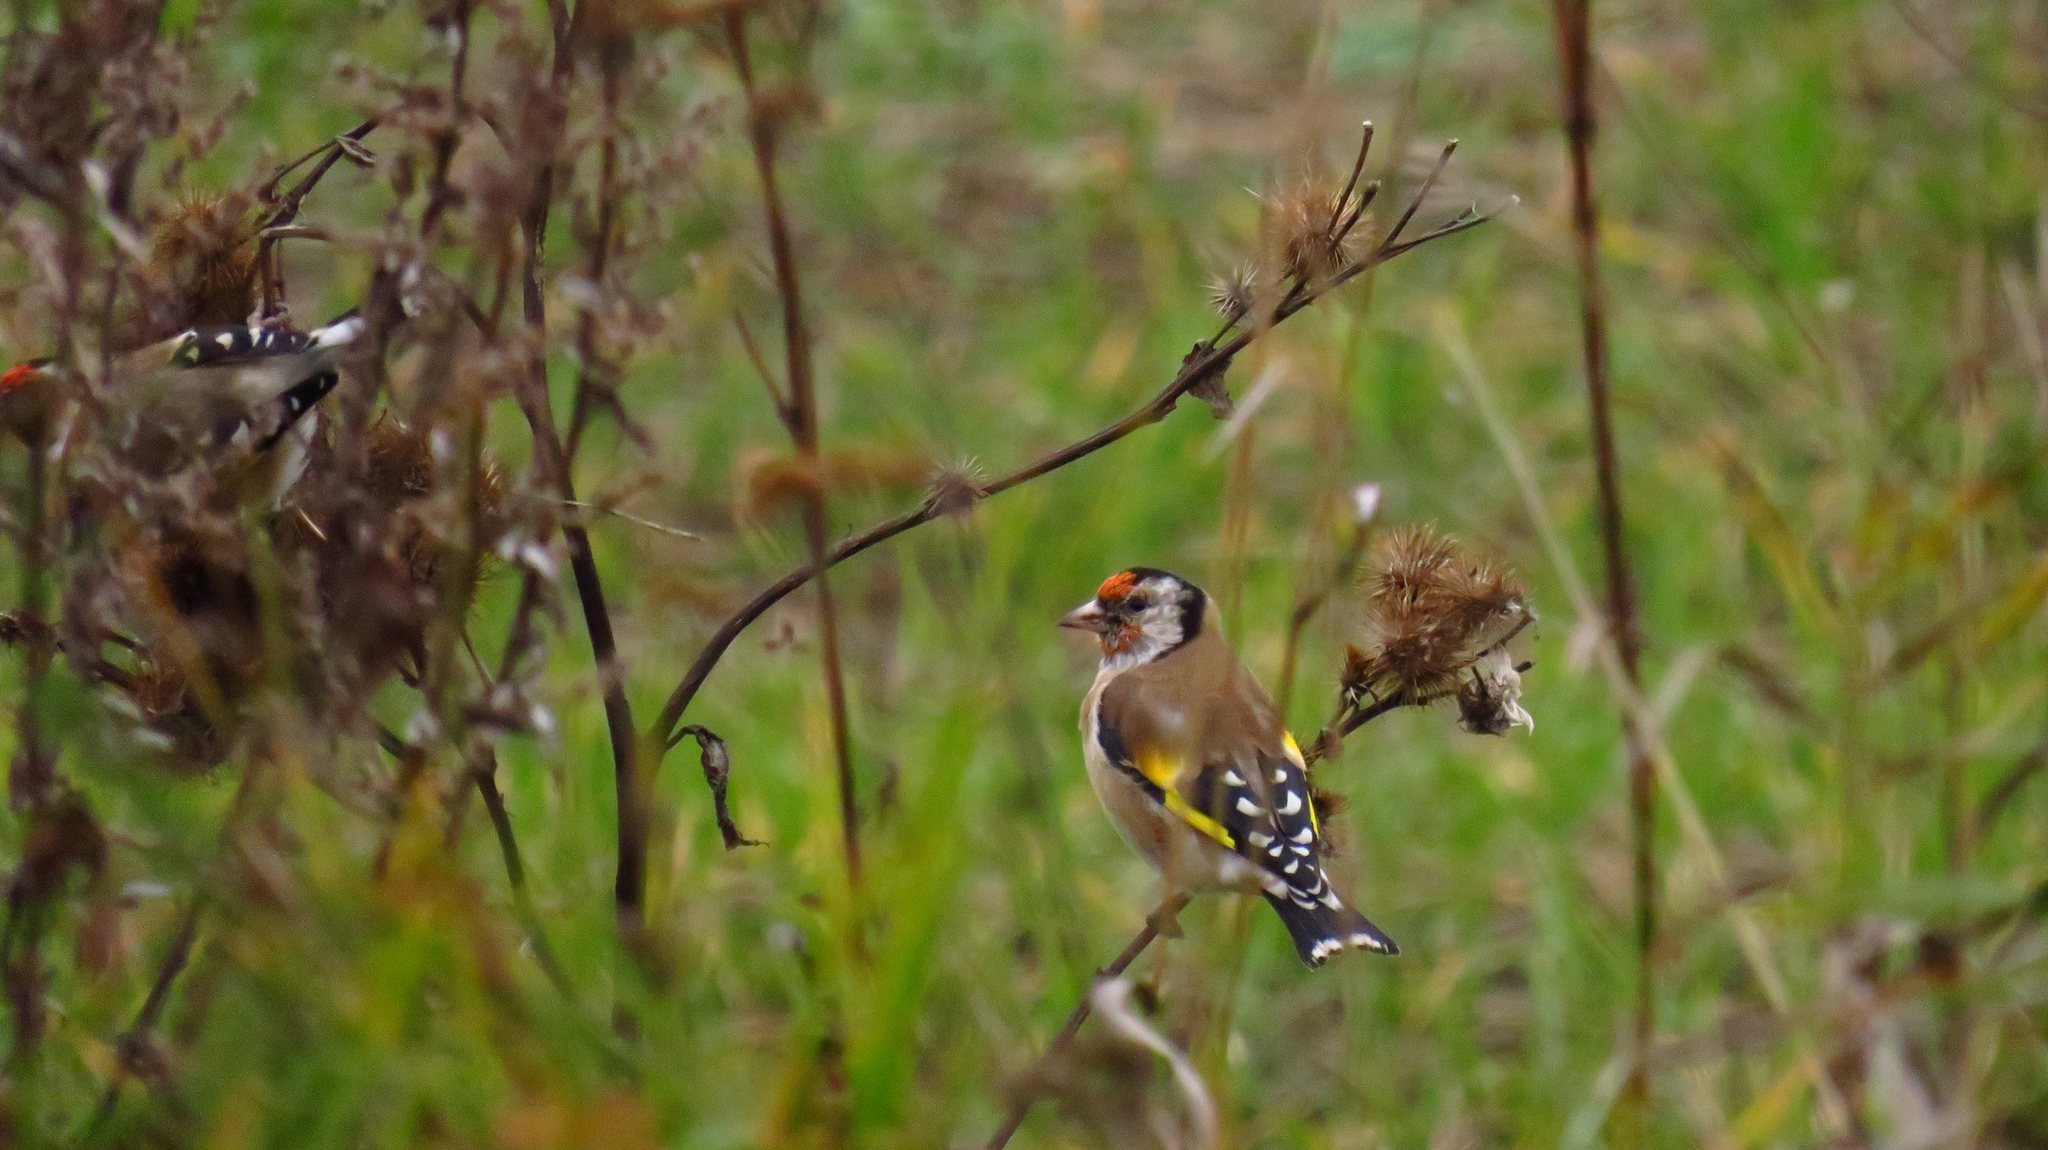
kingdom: Animalia
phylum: Chordata
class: Aves
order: Passeriformes
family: Fringillidae
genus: Carduelis
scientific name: Carduelis carduelis
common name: European goldfinch
